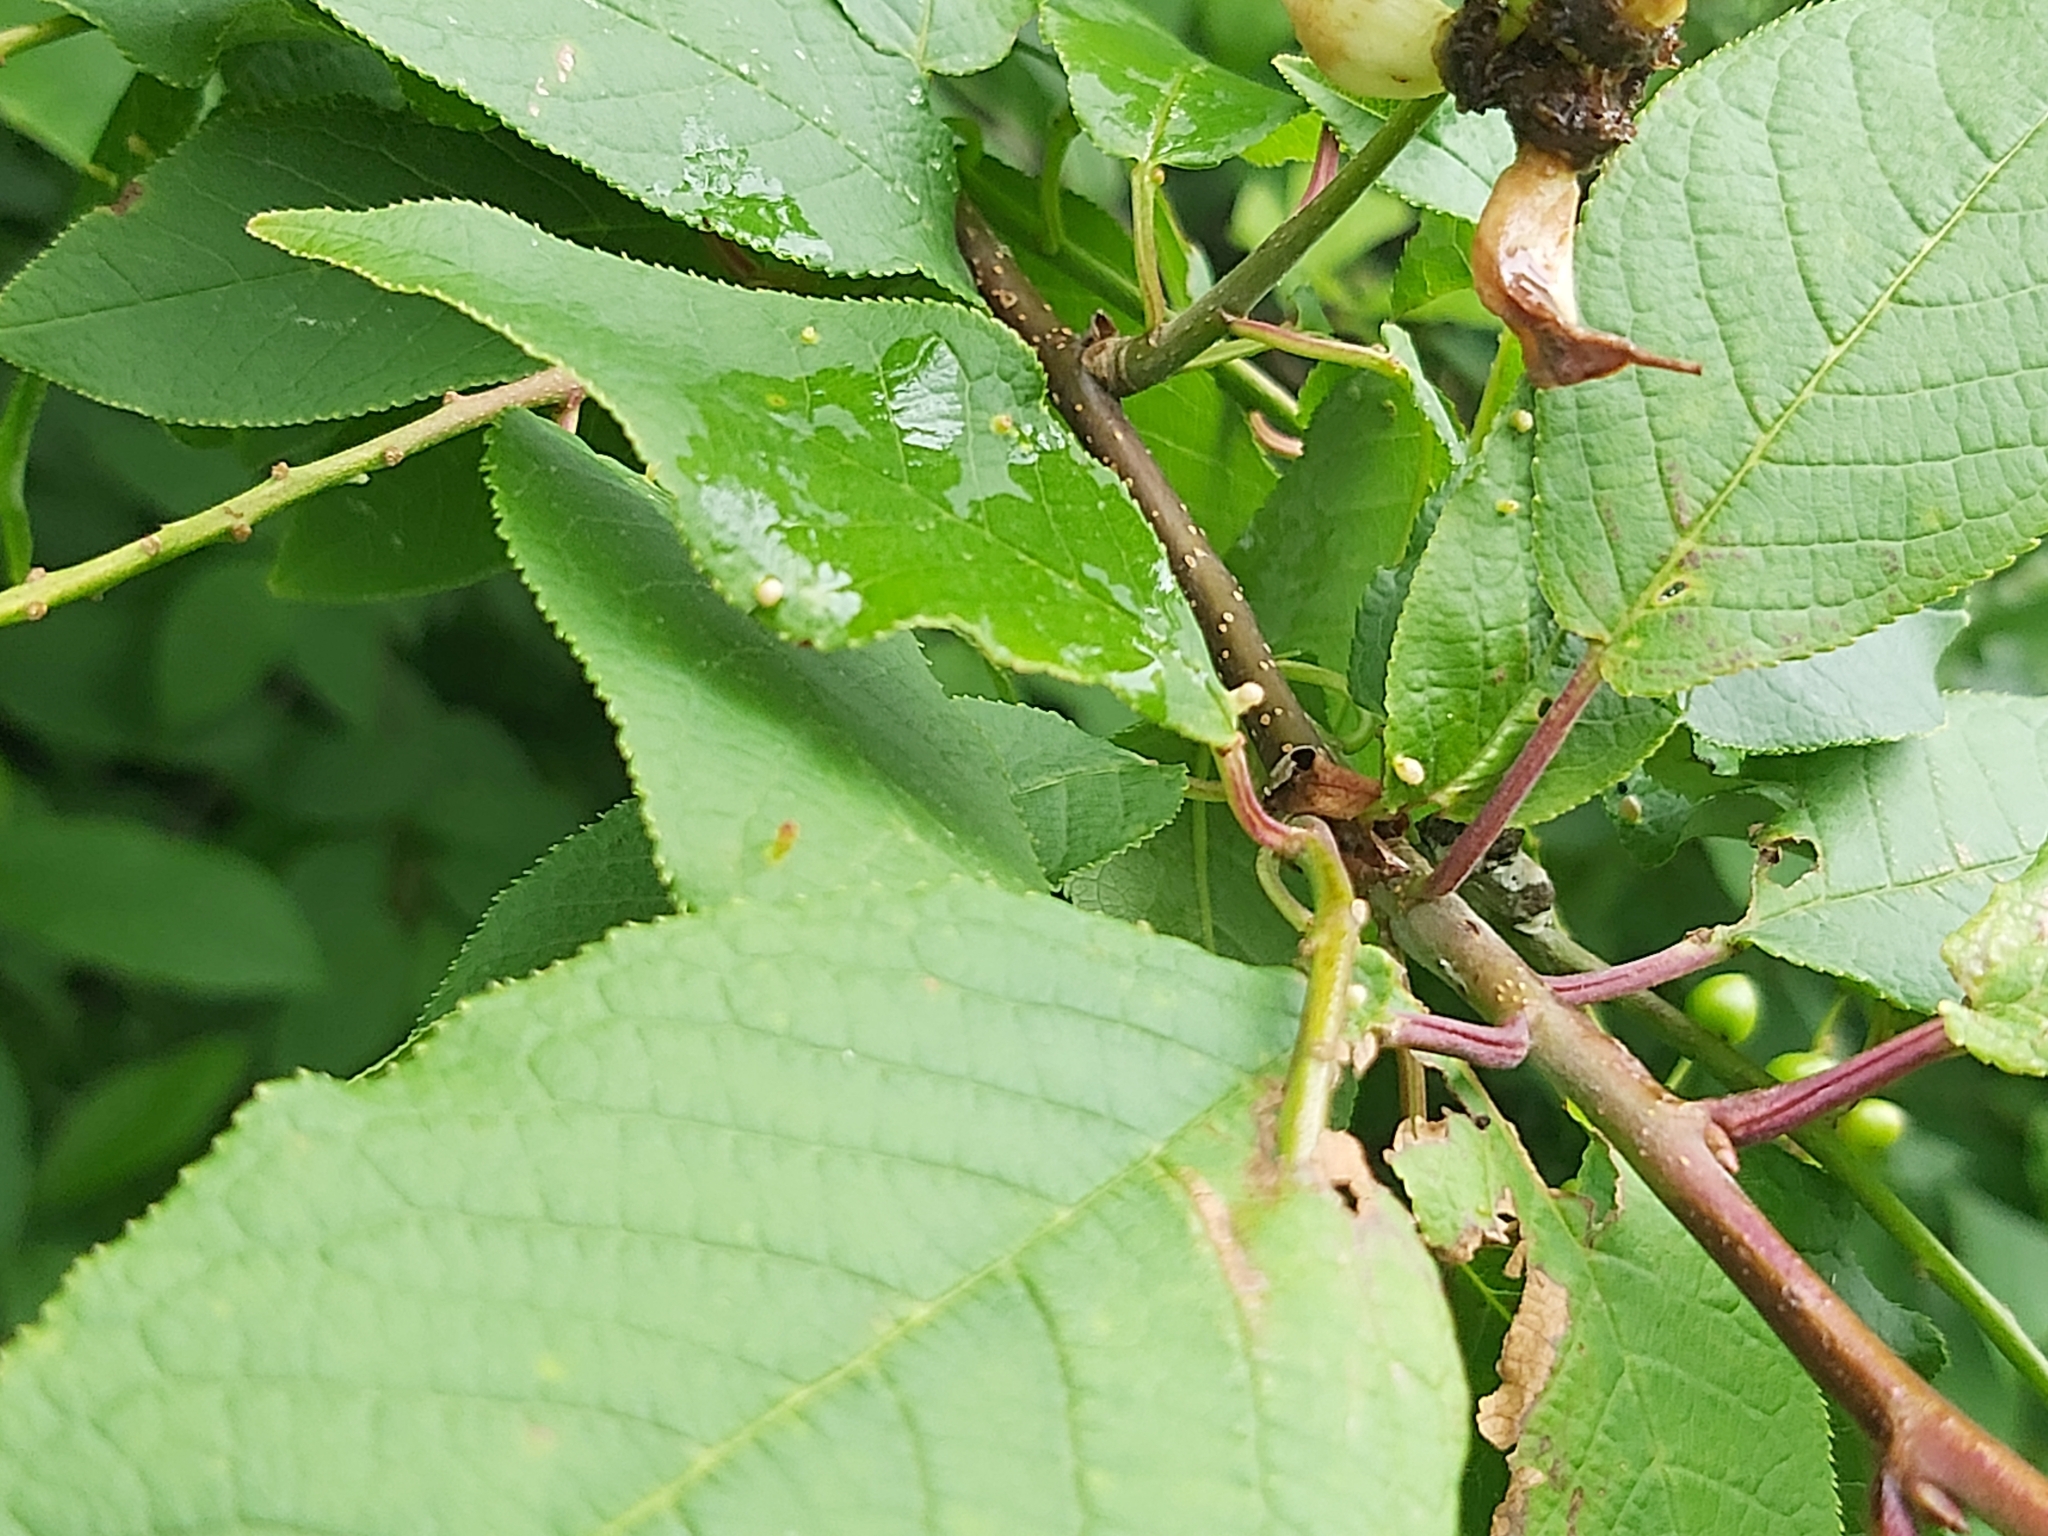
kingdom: Fungi
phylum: Ascomycota
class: Taphrinomycetes
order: Taphrinales
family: Taphrinaceae
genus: Taphrina
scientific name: Taphrina padi
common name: Bird cherry pocket
